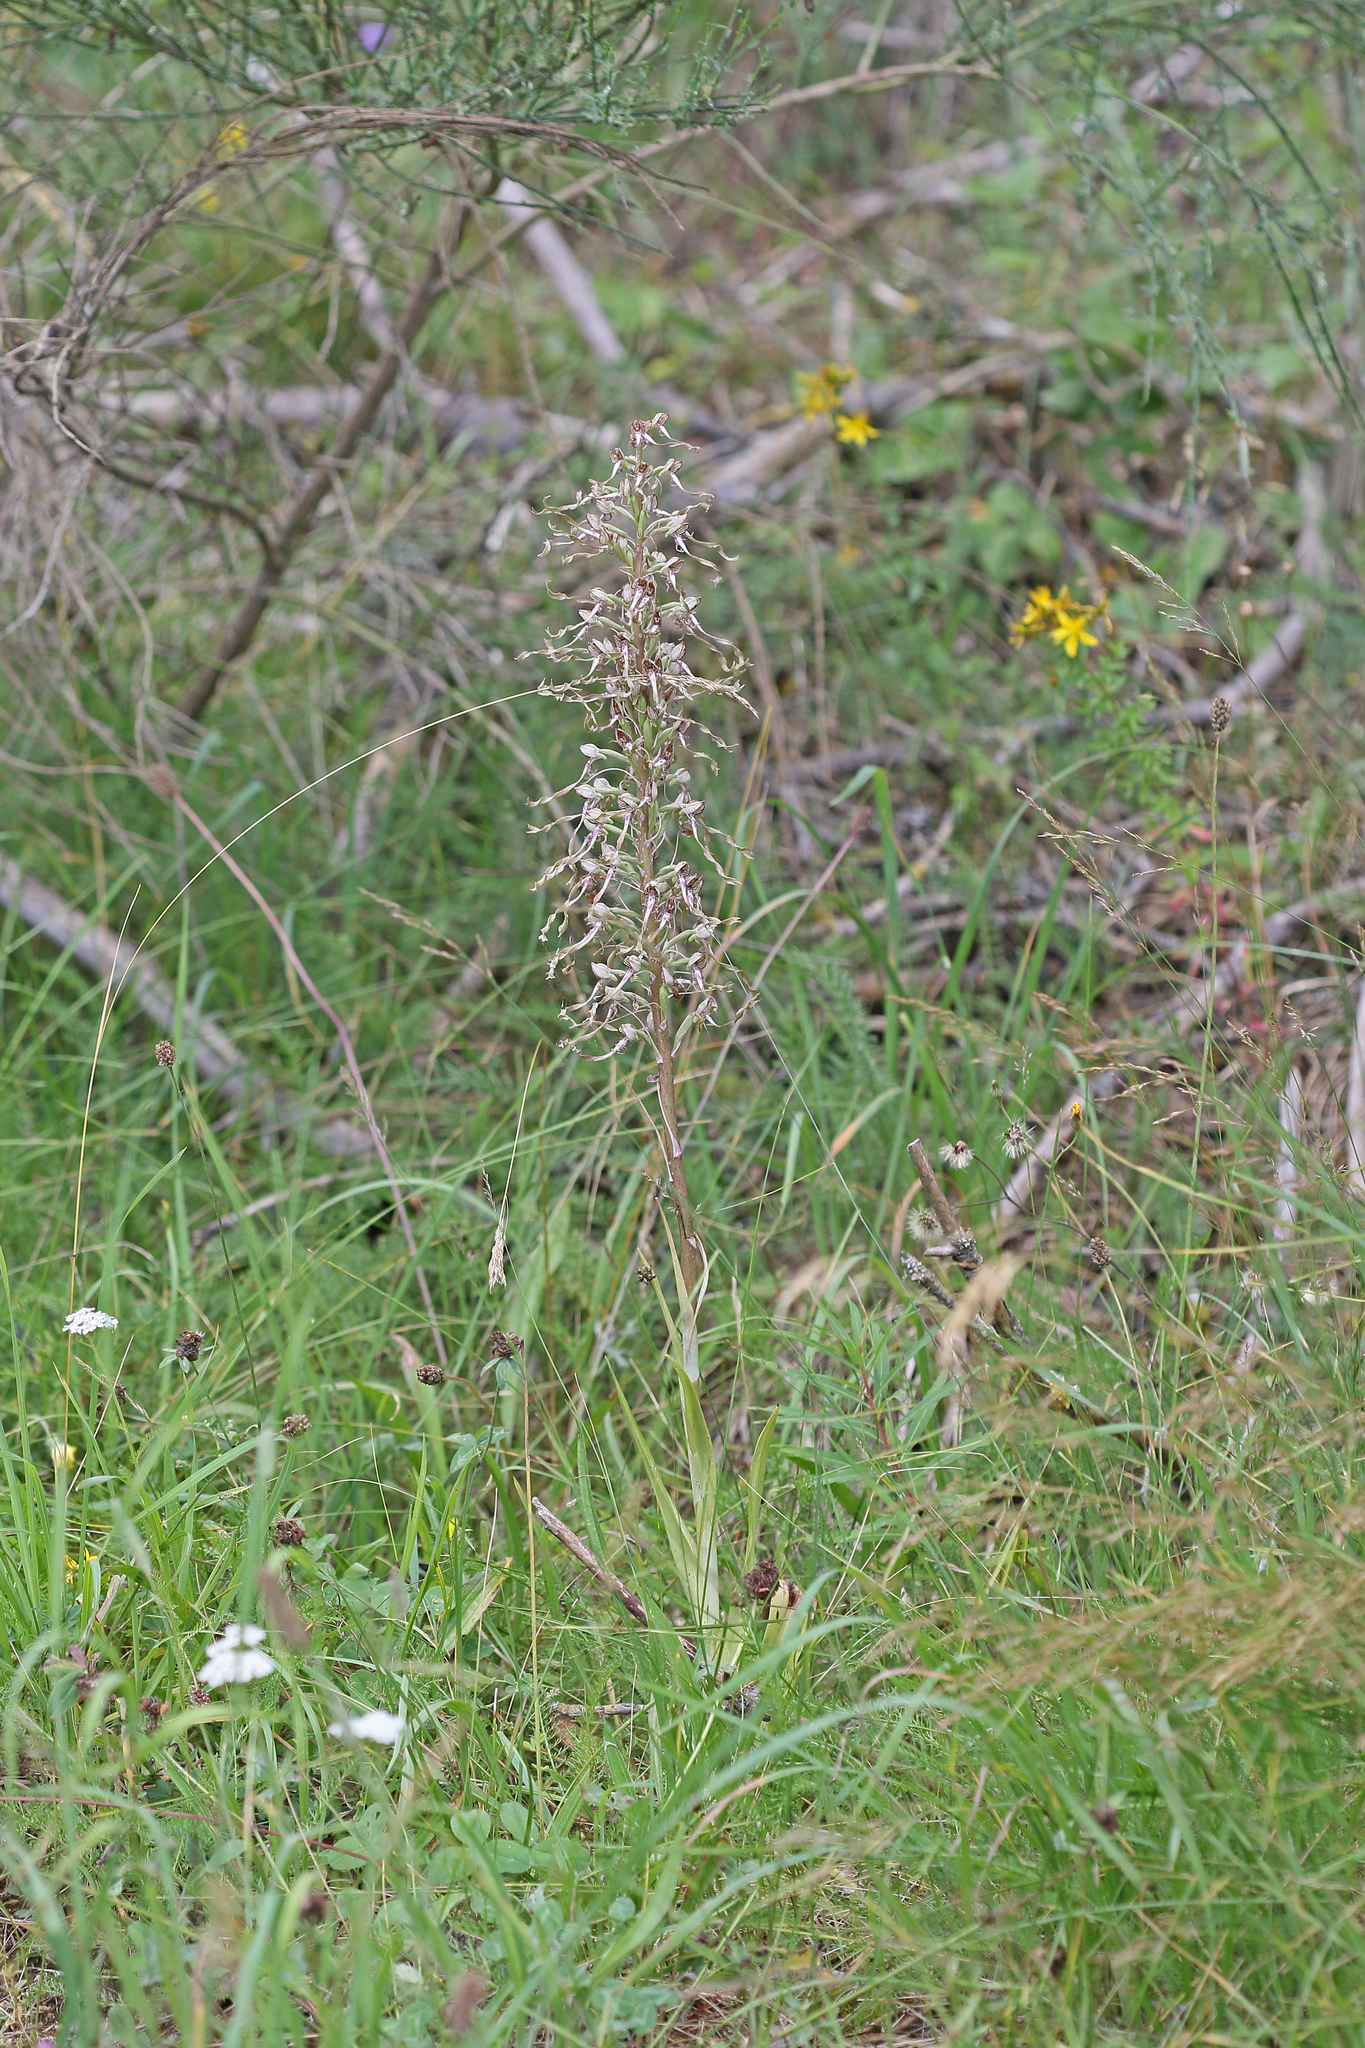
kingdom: Plantae
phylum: Tracheophyta
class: Liliopsida
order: Asparagales
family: Orchidaceae
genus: Himantoglossum
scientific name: Himantoglossum hircinum
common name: Lizard orchid
